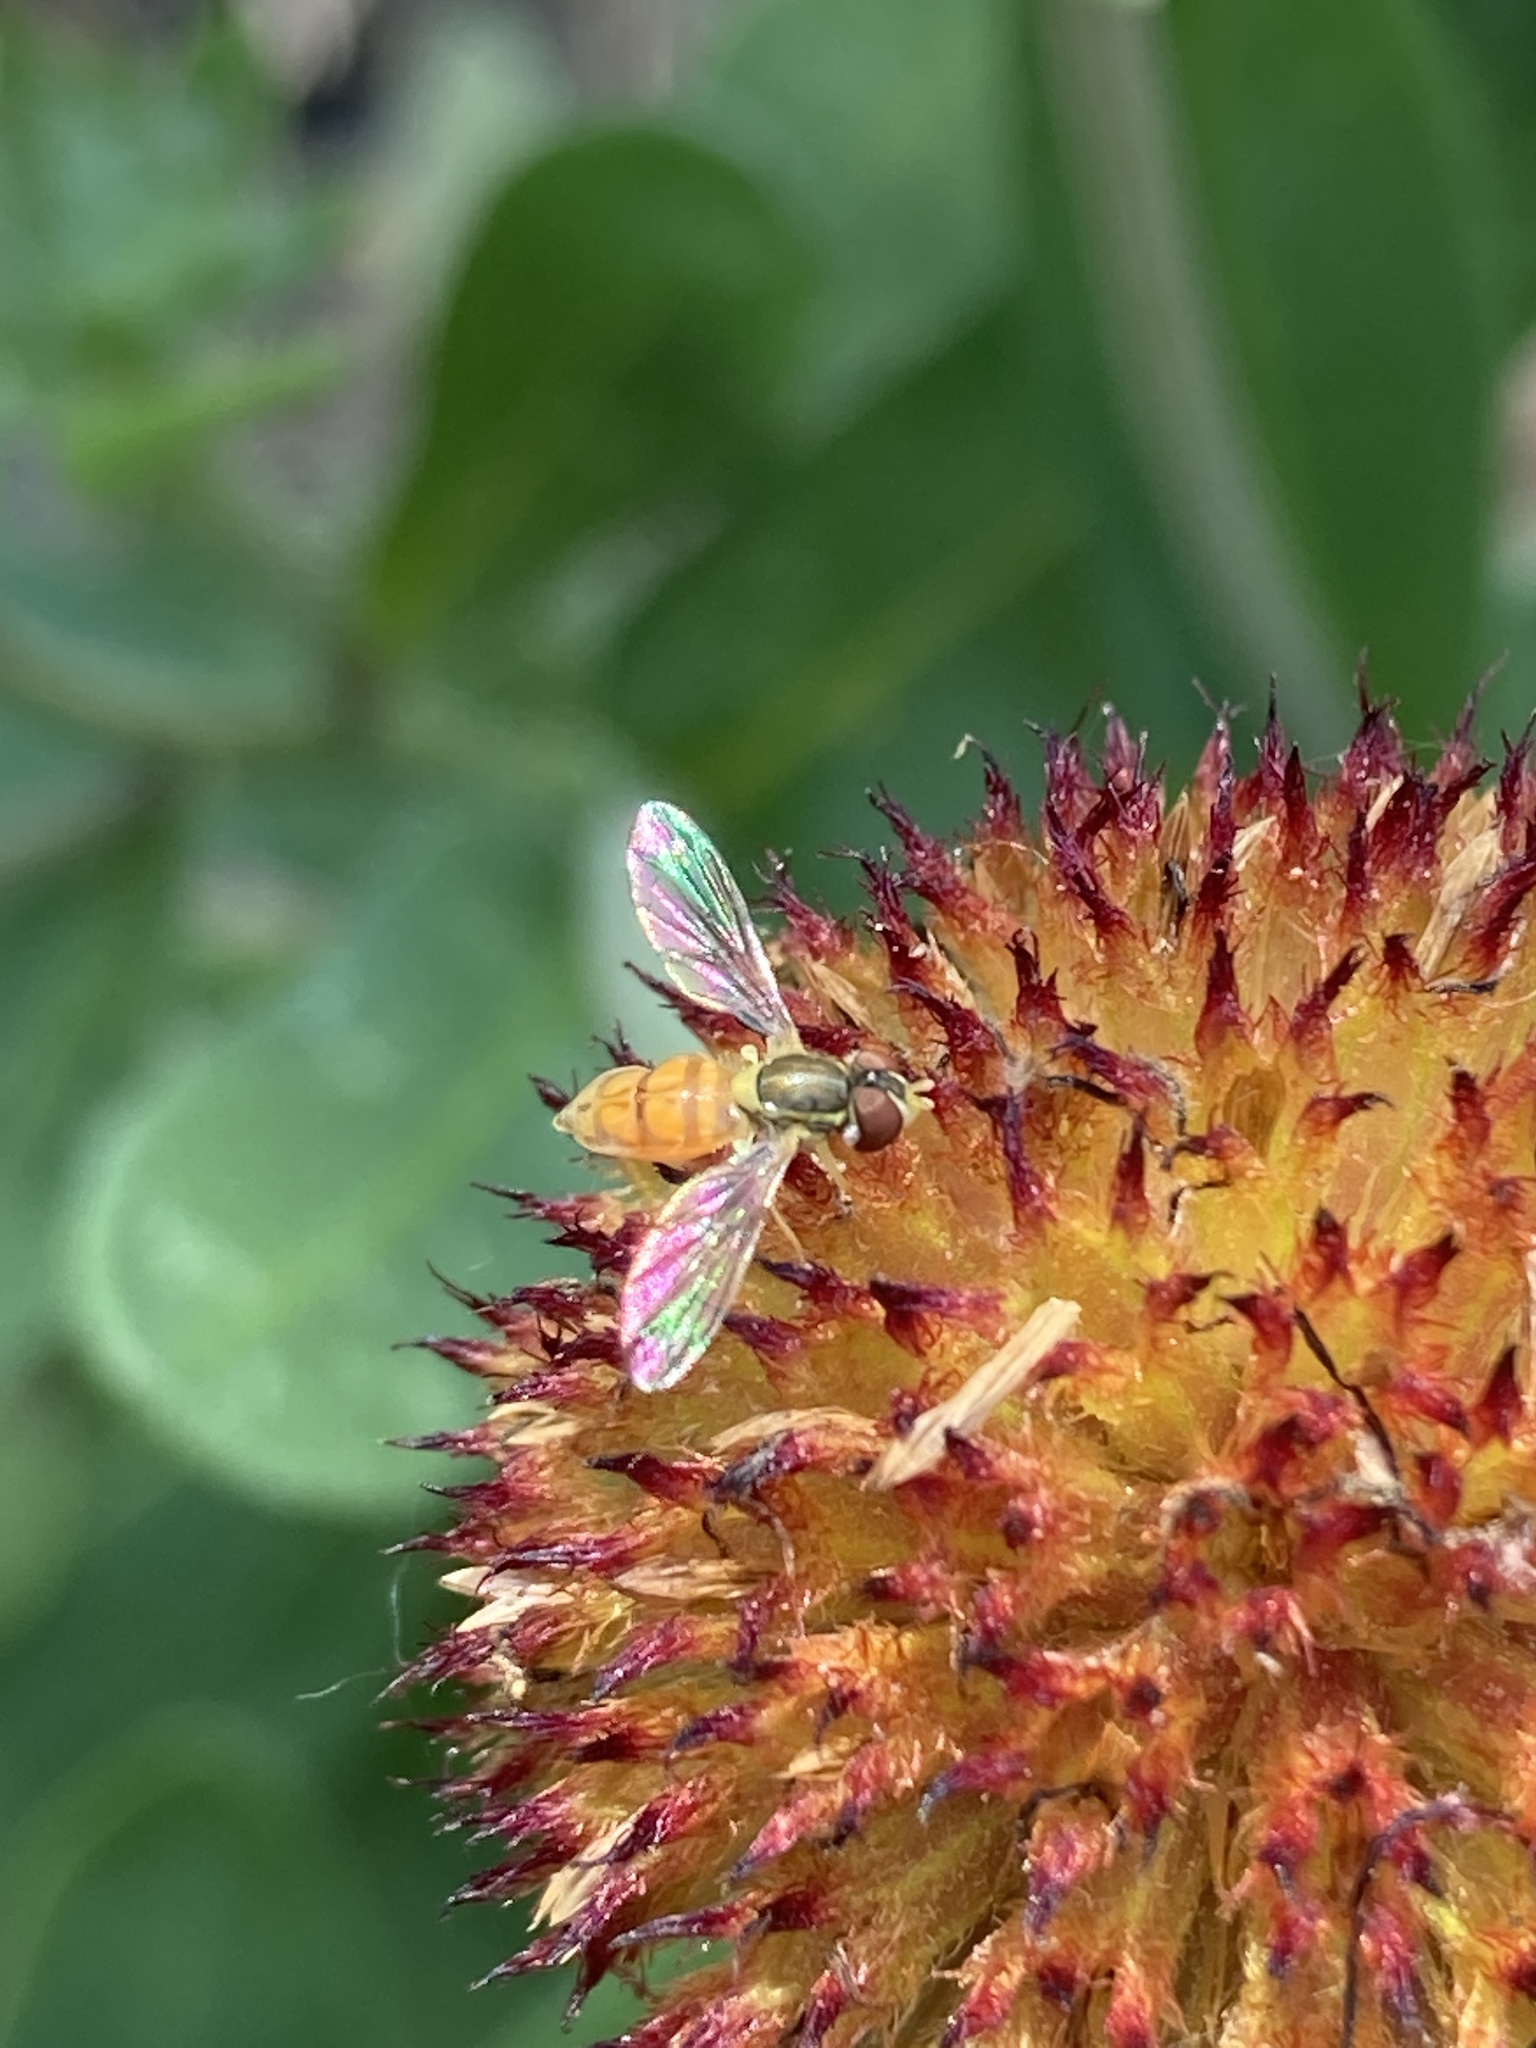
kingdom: Animalia
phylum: Arthropoda
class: Insecta
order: Diptera
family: Syrphidae
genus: Toxomerus
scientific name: Toxomerus marginatus
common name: Syrphid fly
